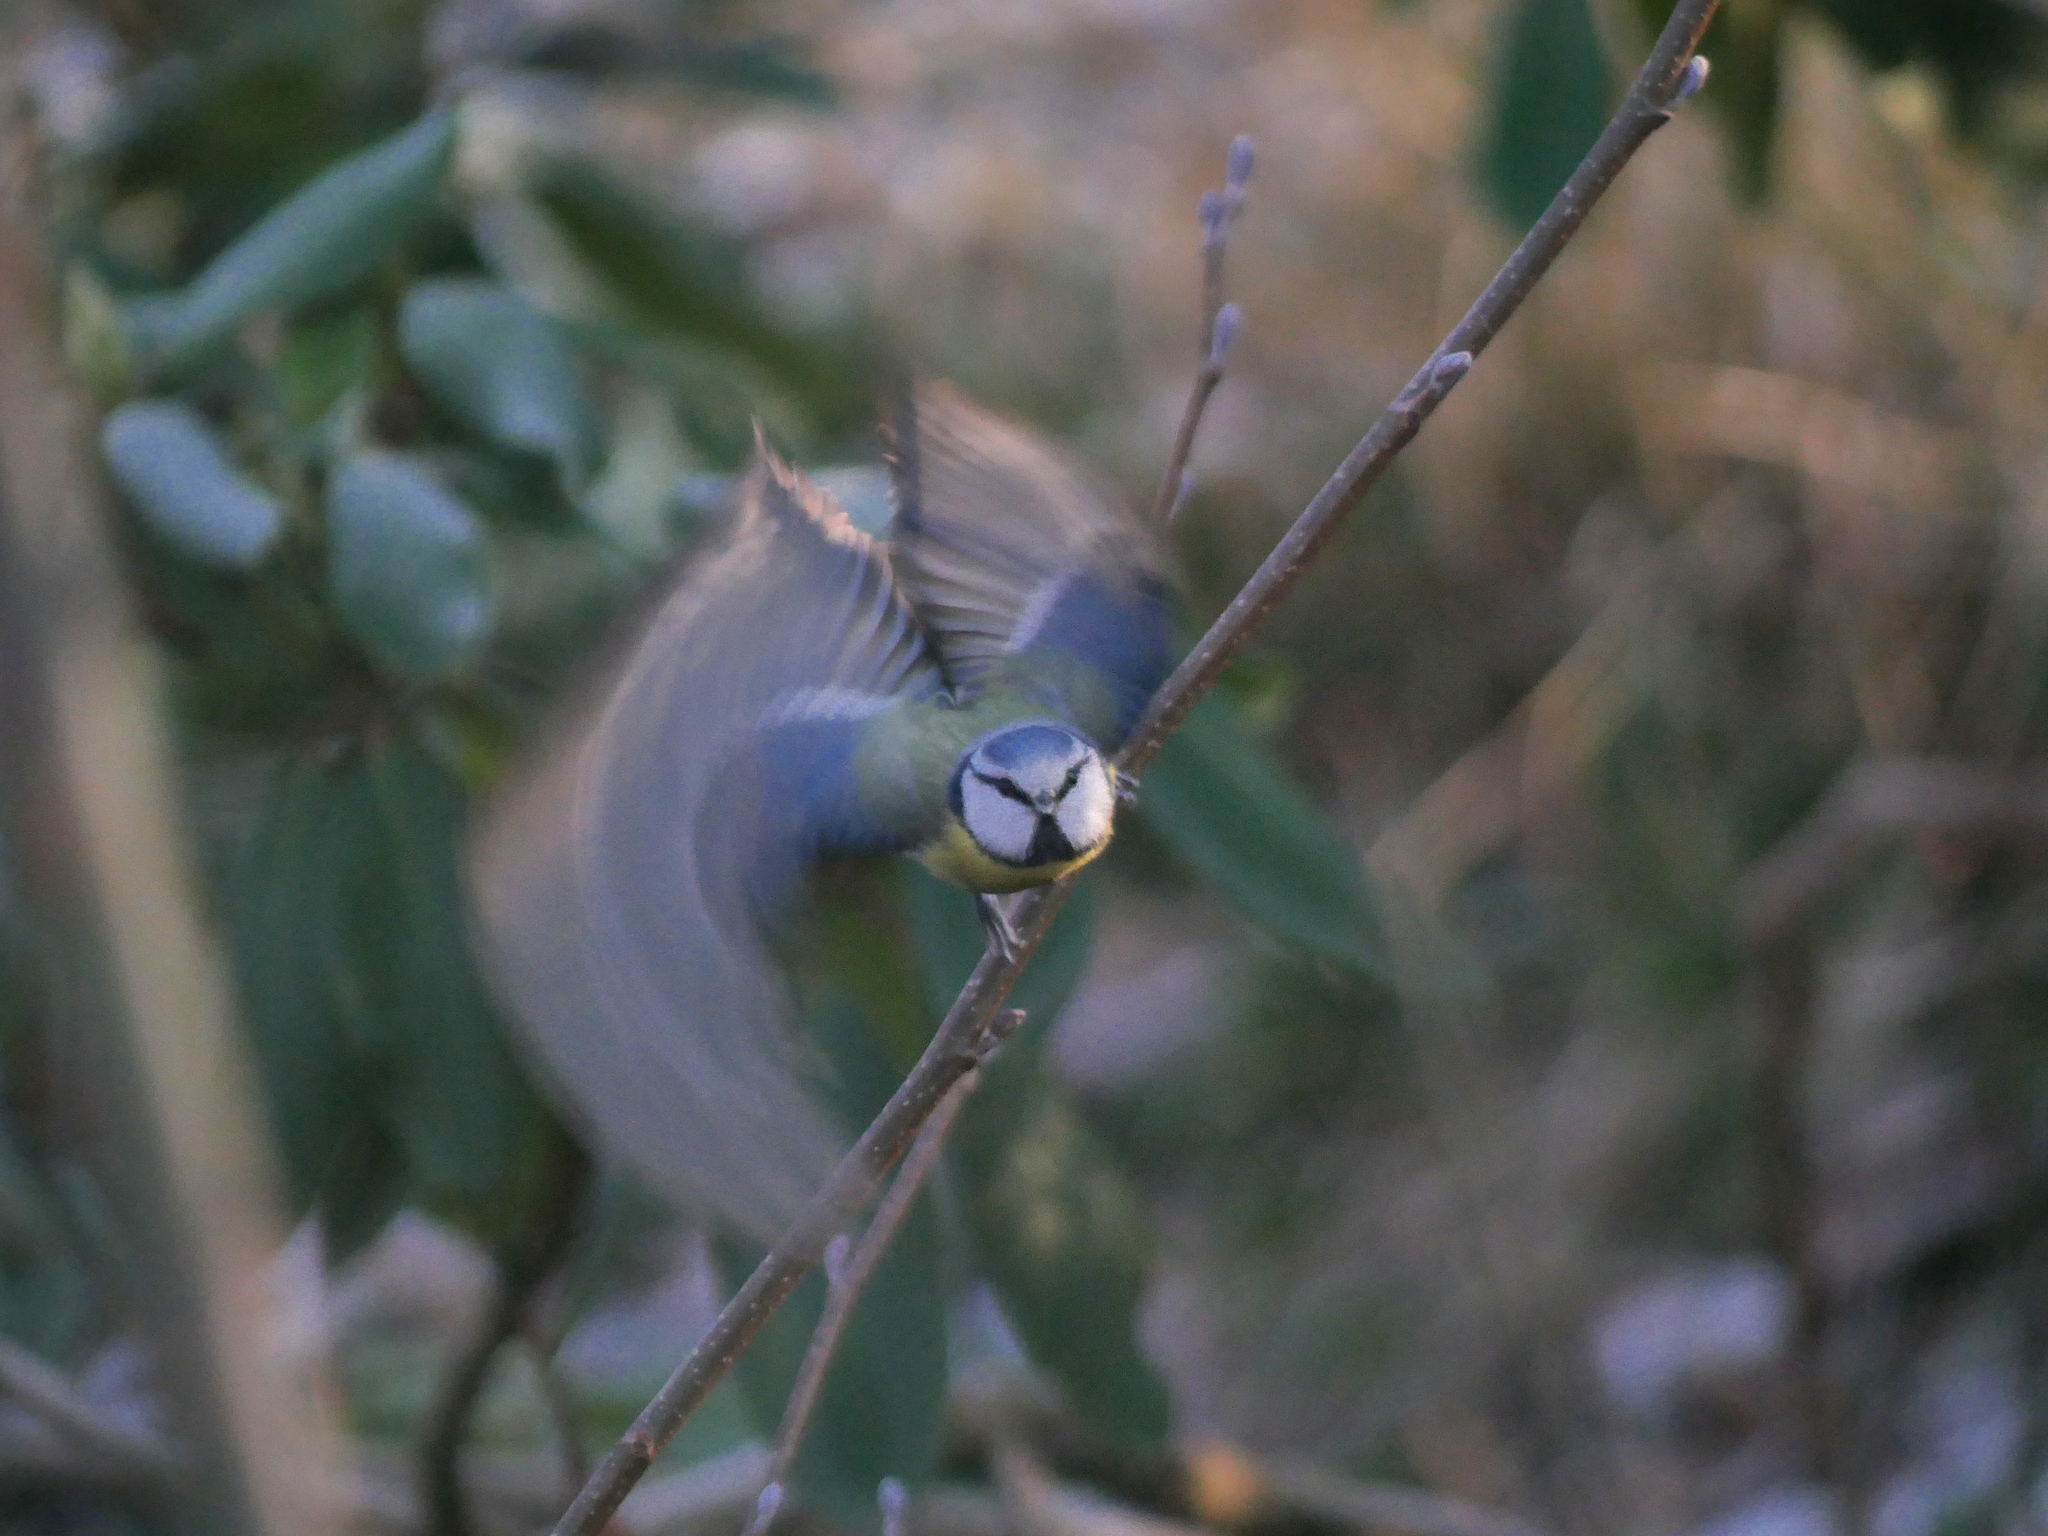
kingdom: Animalia
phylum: Chordata
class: Aves
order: Passeriformes
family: Paridae
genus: Cyanistes
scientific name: Cyanistes caeruleus
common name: Eurasian blue tit
